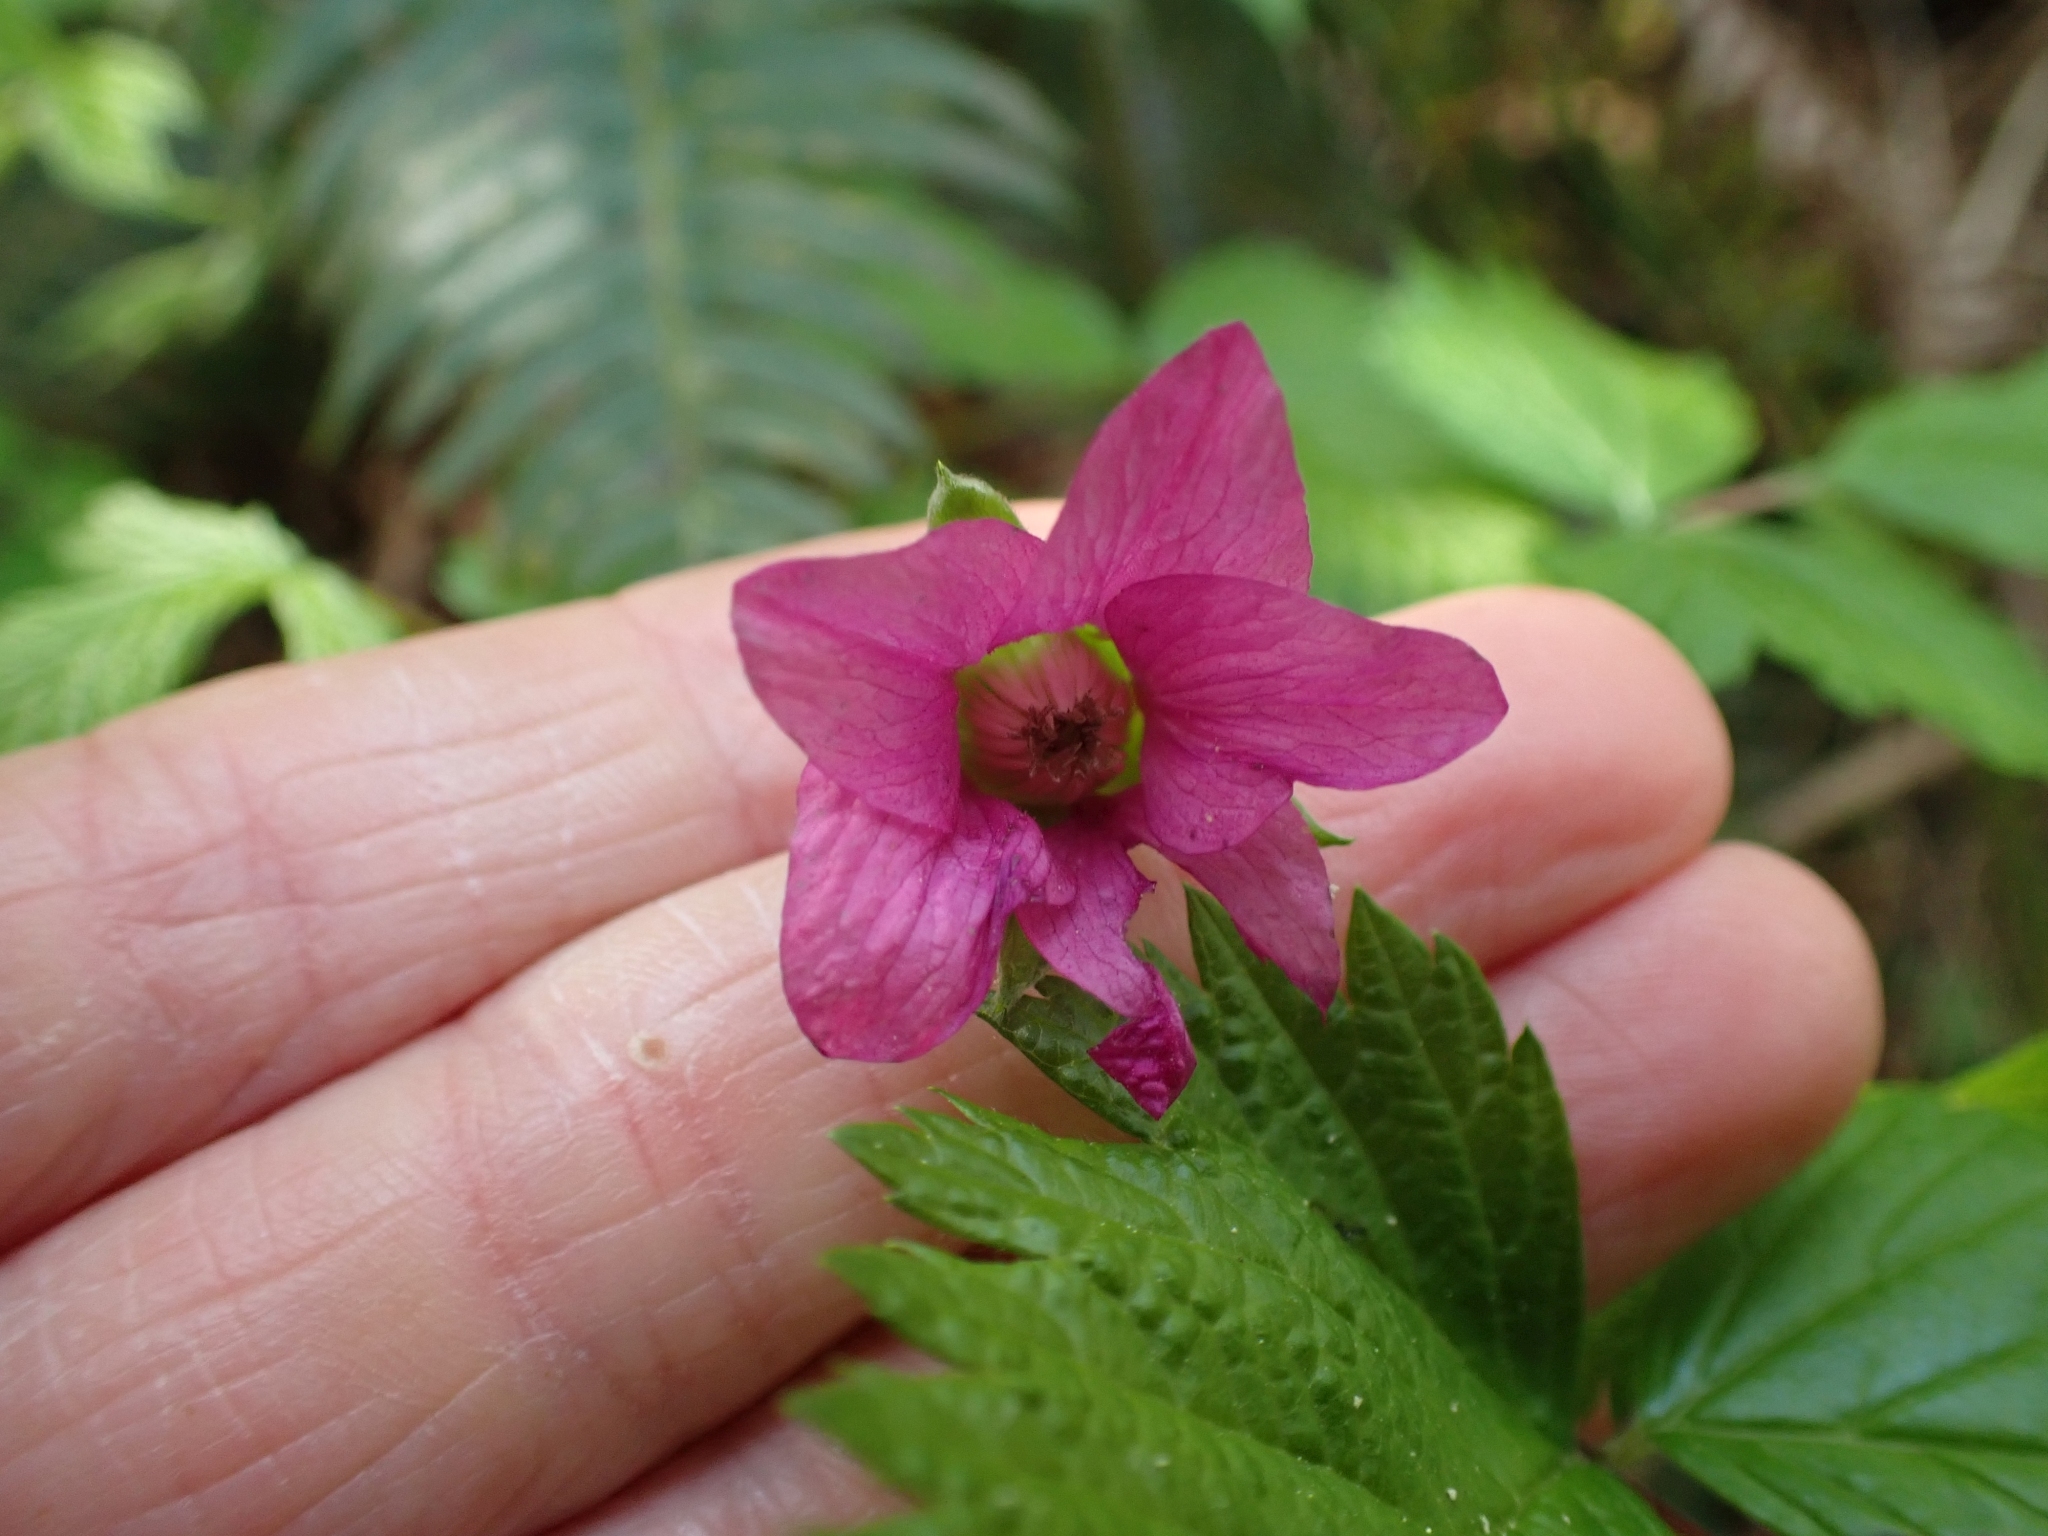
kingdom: Plantae
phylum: Tracheophyta
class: Magnoliopsida
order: Rosales
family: Rosaceae
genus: Rubus
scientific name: Rubus spectabilis
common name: Salmonberry
